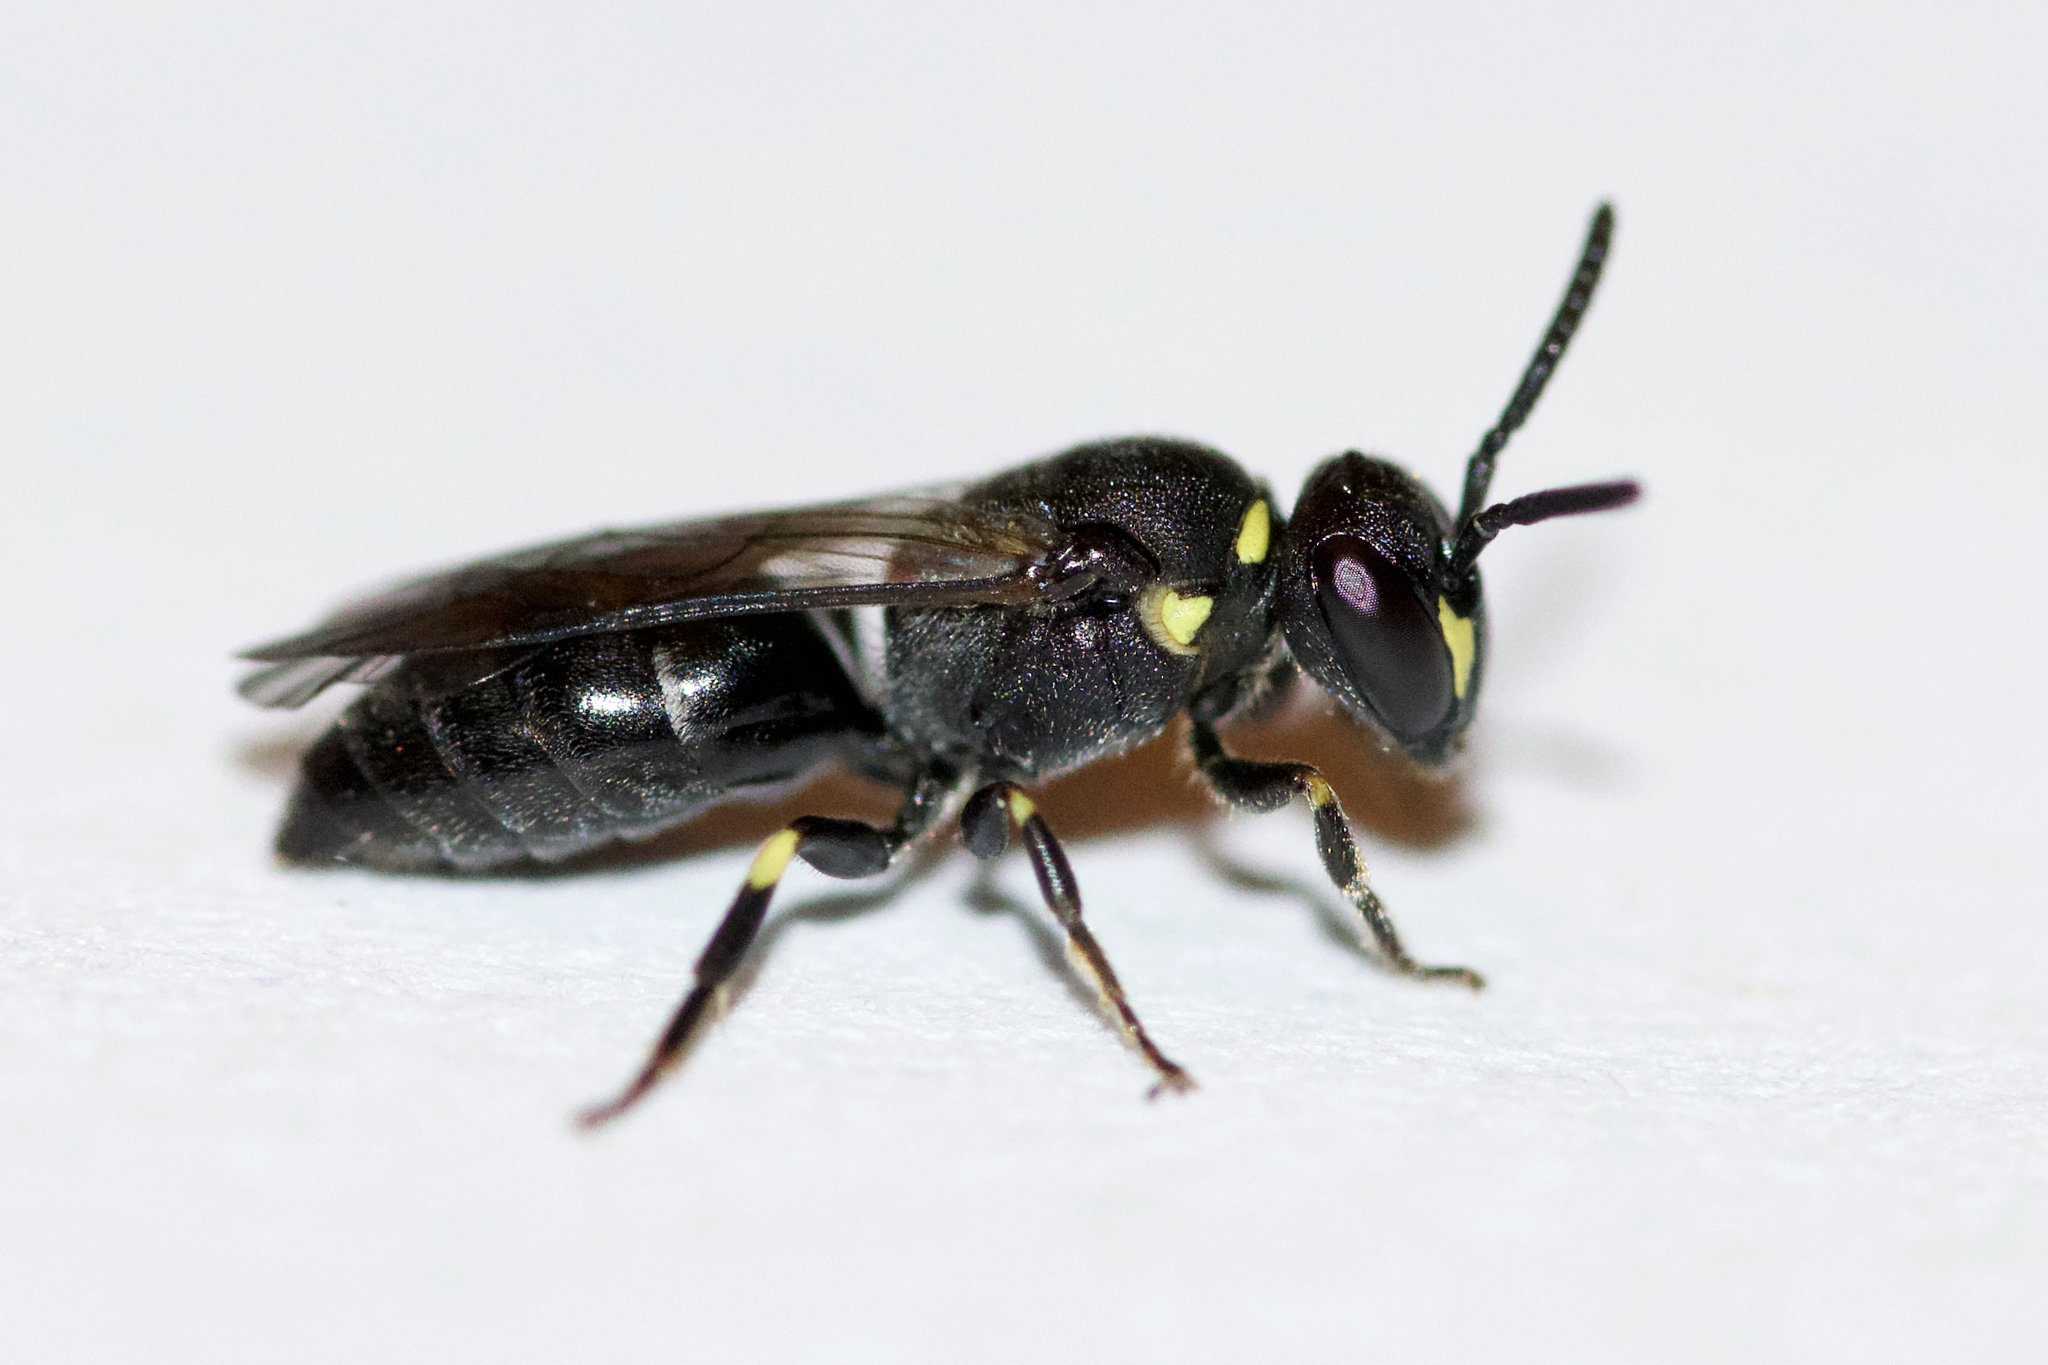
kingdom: Animalia
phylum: Arthropoda
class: Insecta
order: Hymenoptera
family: Colletidae
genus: Hylaeus
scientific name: Hylaeus modestus
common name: Yellow-faced bee
